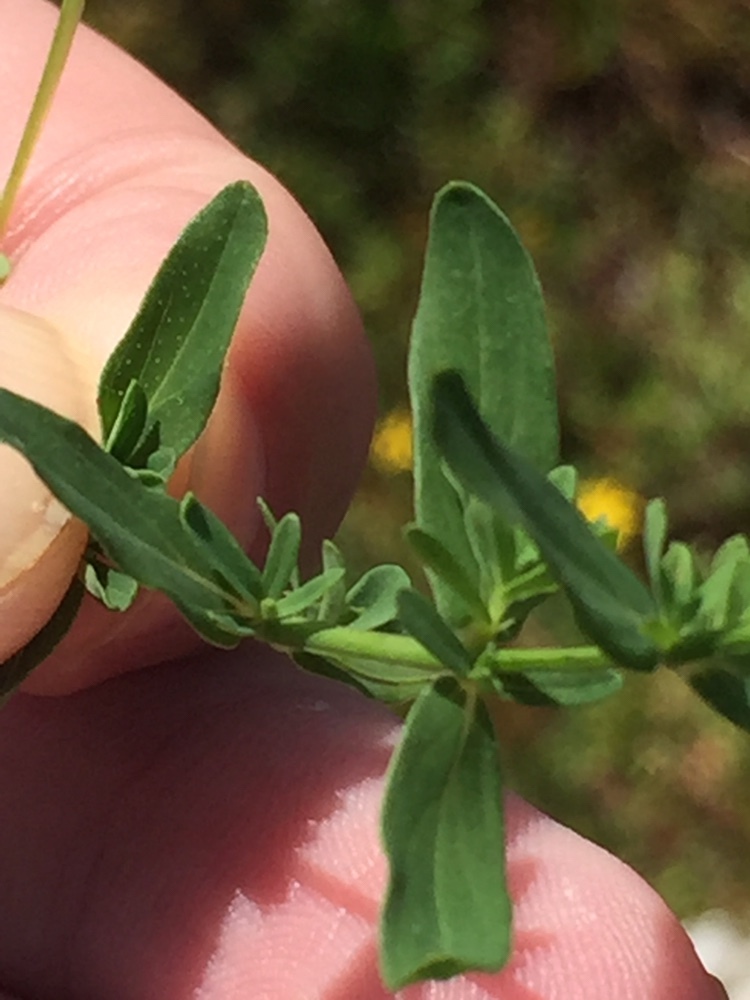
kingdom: Plantae
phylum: Tracheophyta
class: Magnoliopsida
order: Malpighiales
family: Hypericaceae
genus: Hypericum
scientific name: Hypericum perforatum
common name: Common st. johnswort
